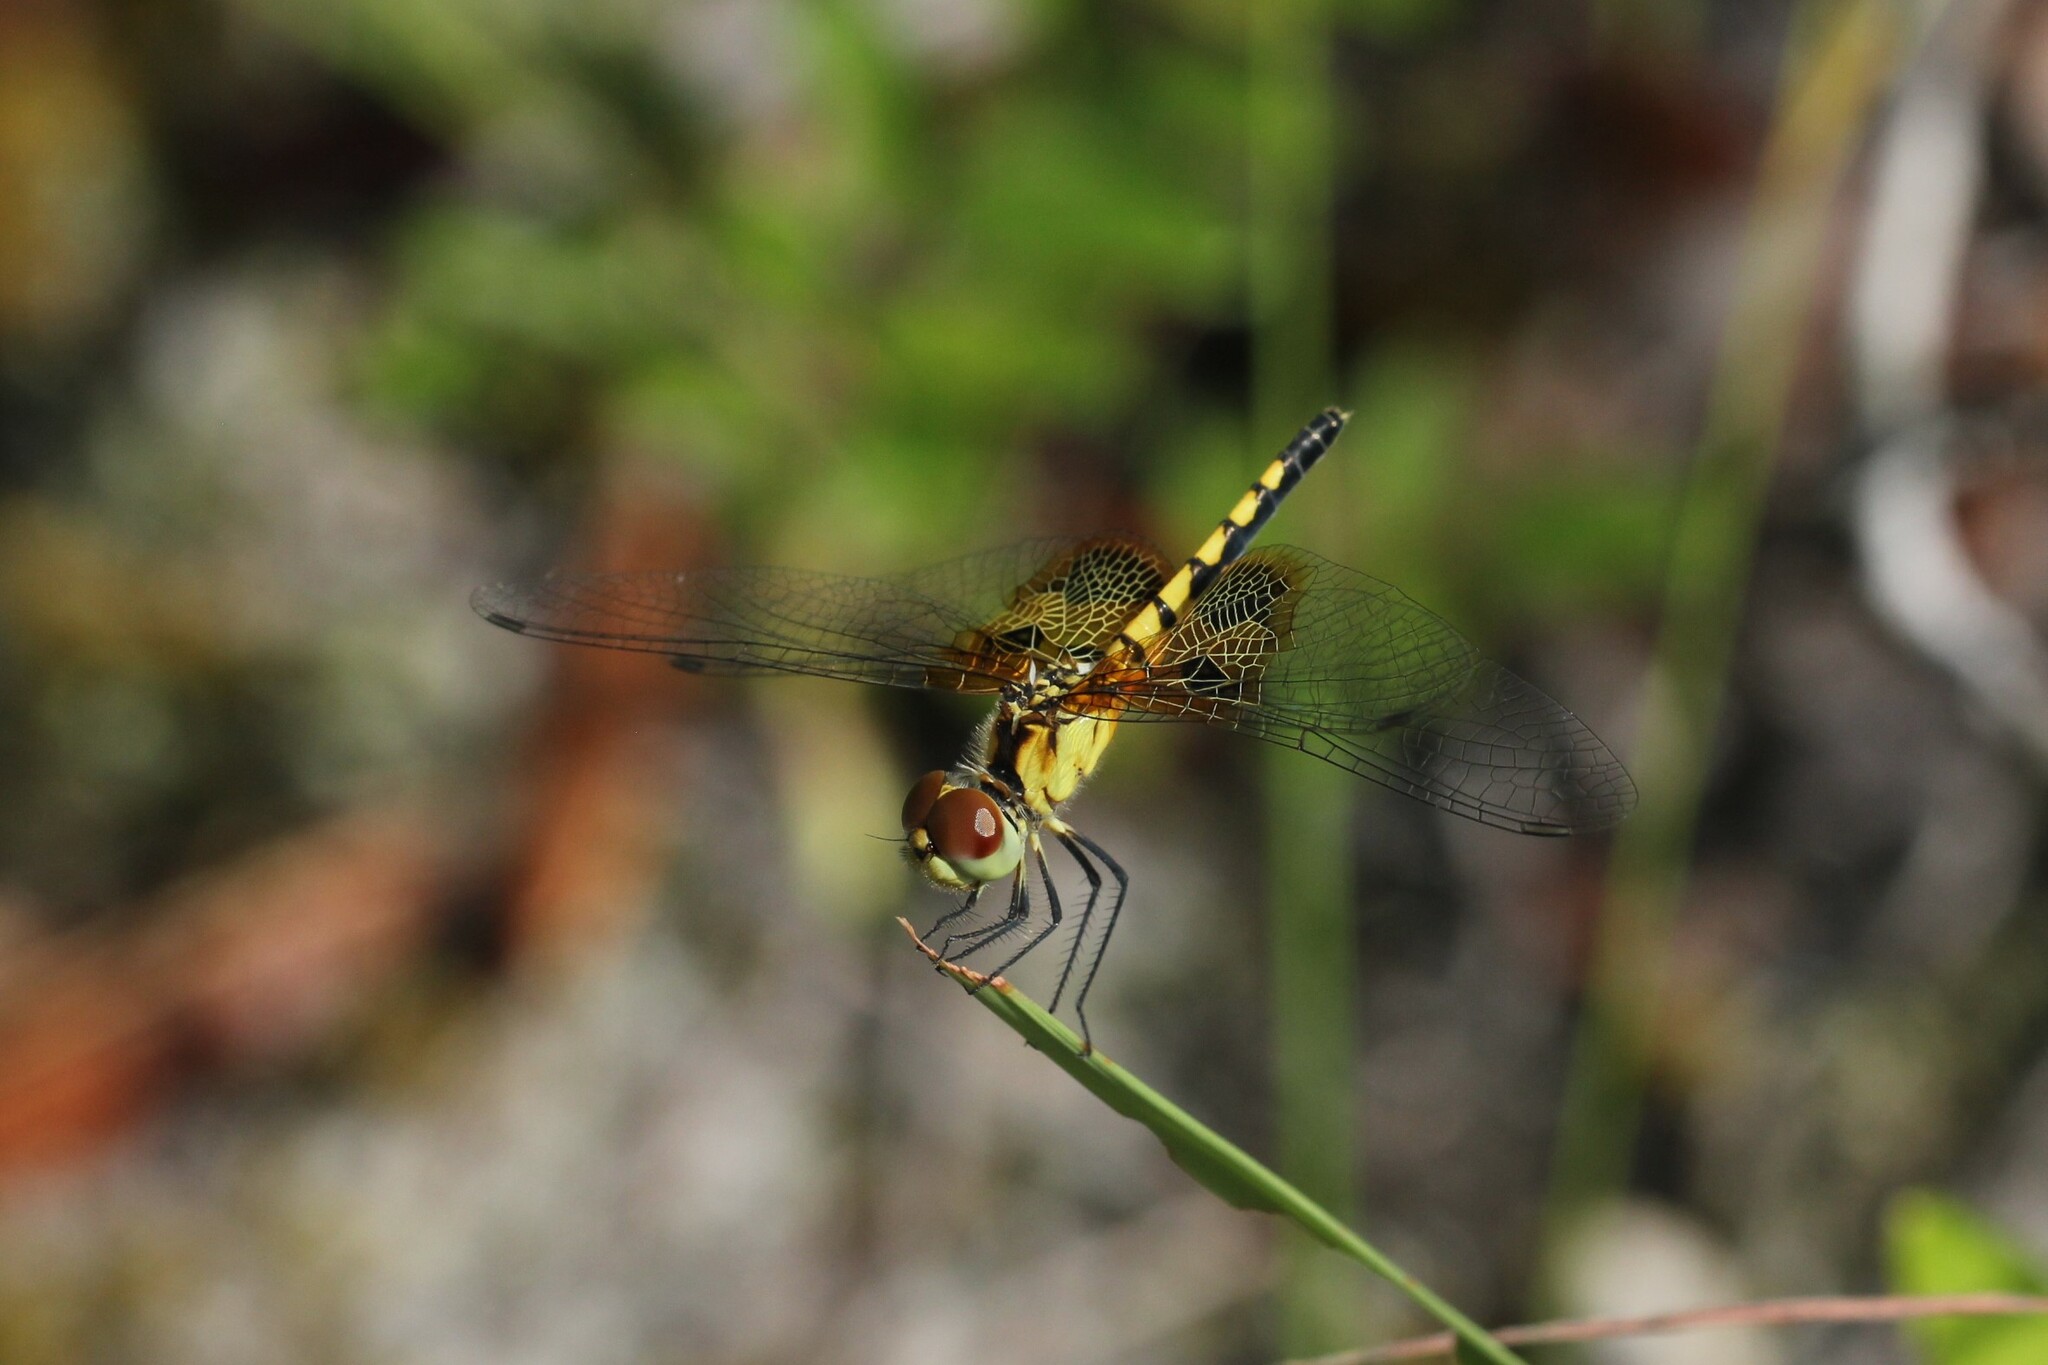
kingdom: Animalia
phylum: Arthropoda
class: Insecta
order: Odonata
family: Libellulidae
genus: Celithemis
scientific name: Celithemis amanda
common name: Amanda's pennant
